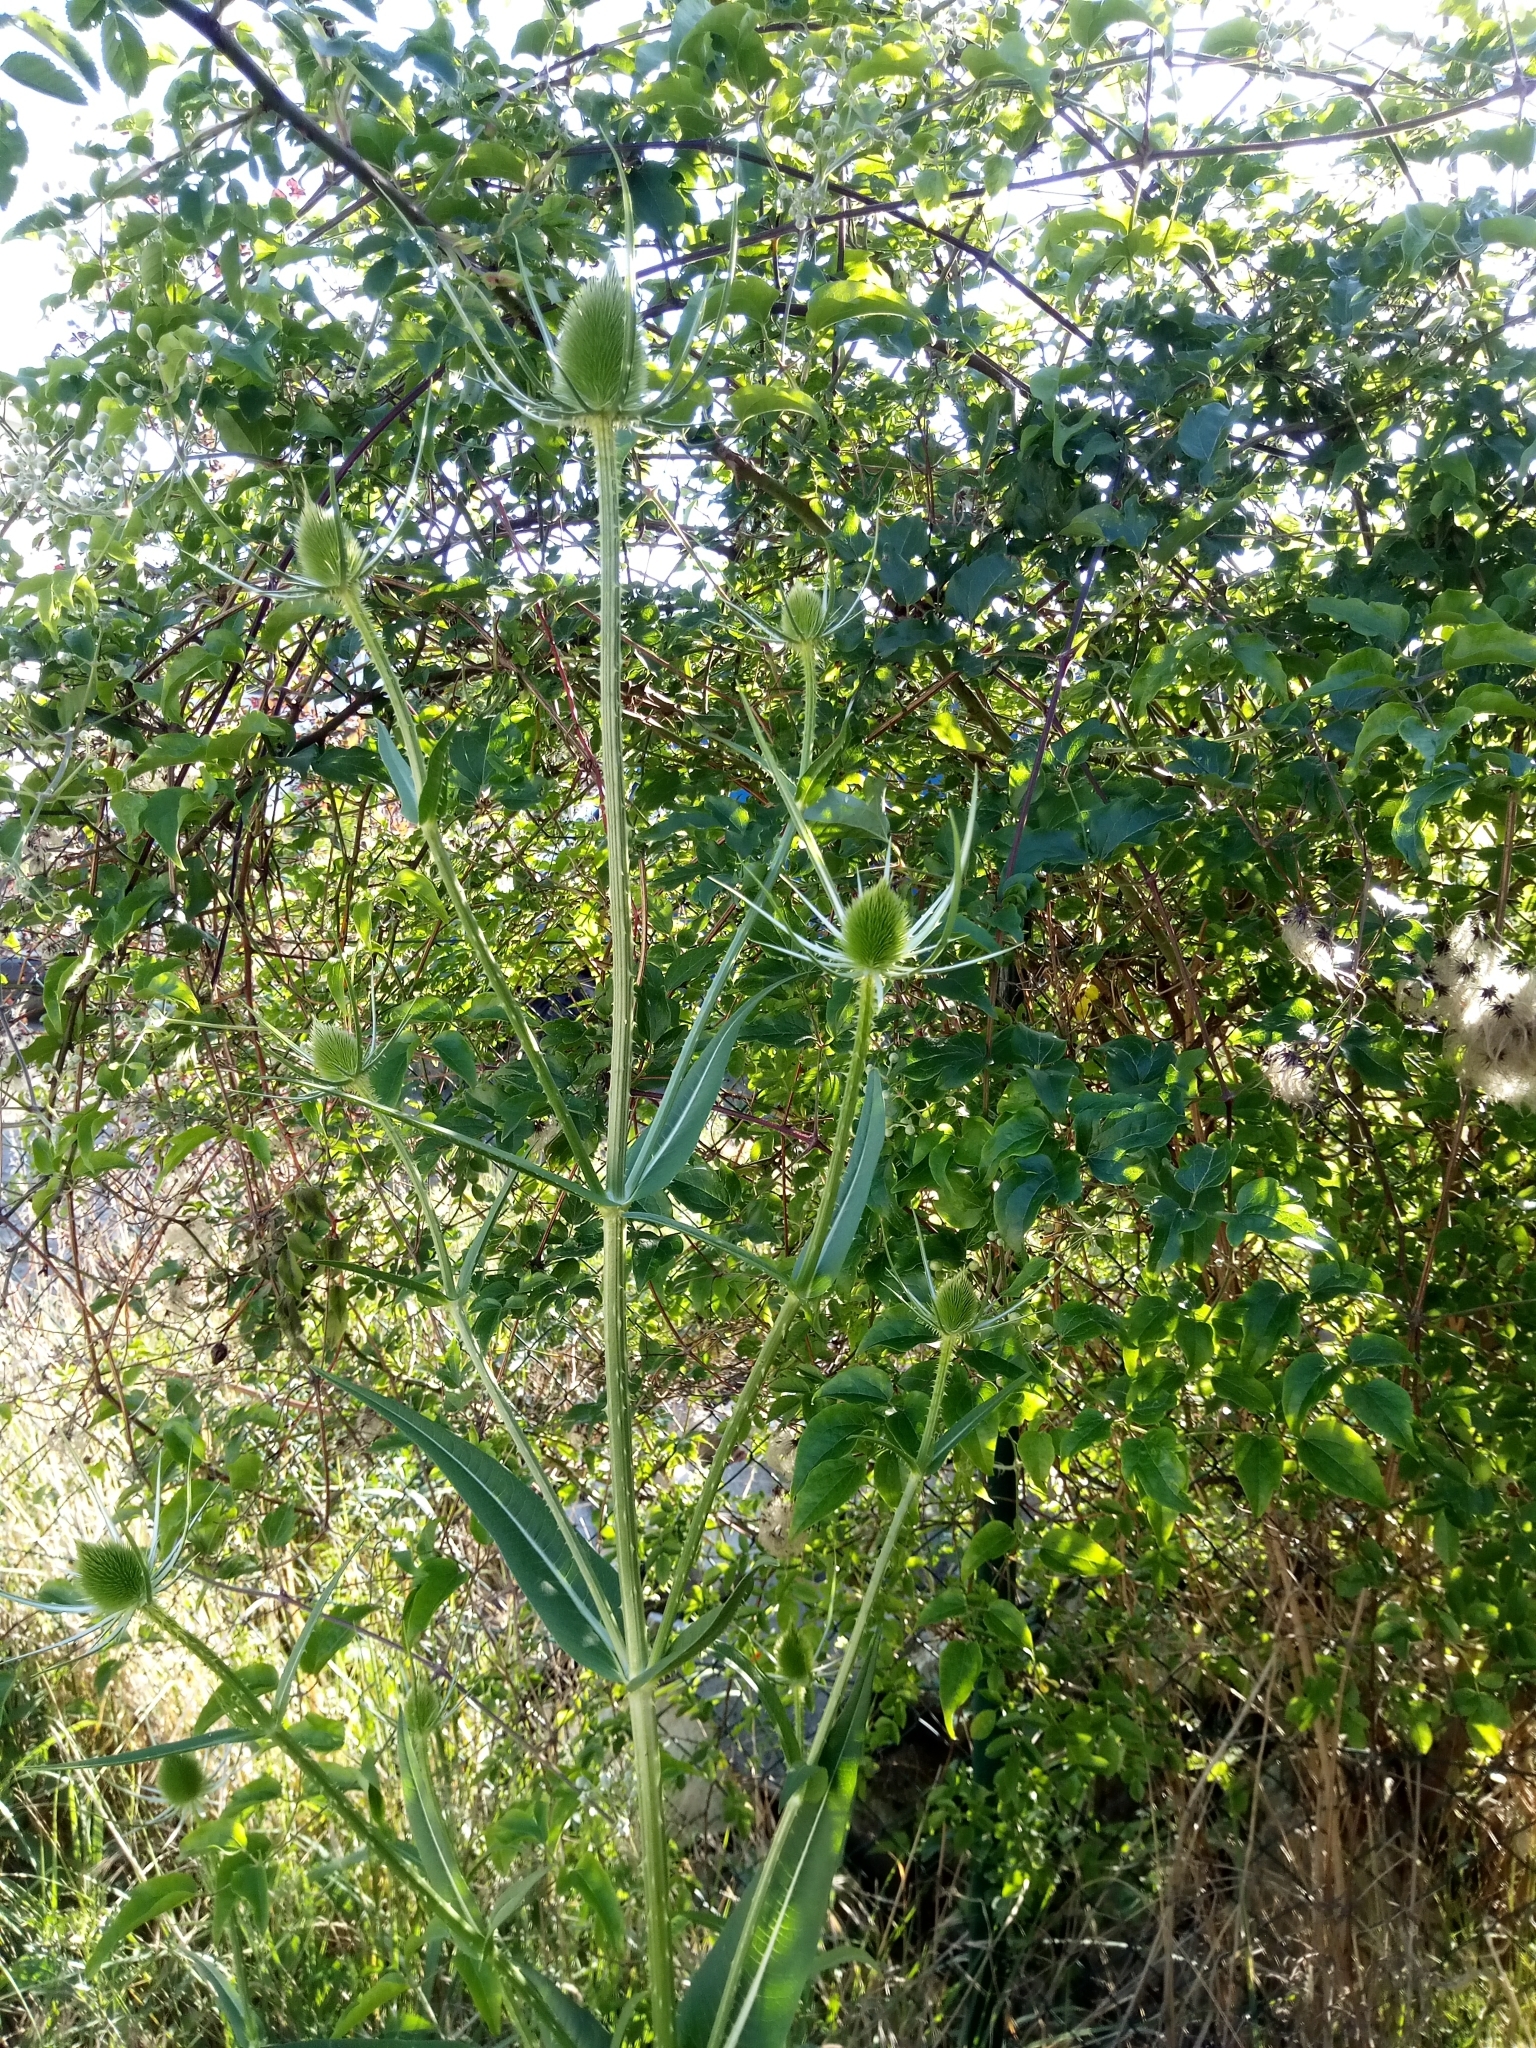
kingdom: Plantae
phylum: Tracheophyta
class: Magnoliopsida
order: Dipsacales
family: Caprifoliaceae
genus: Dipsacus
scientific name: Dipsacus fullonum
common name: Teasel
